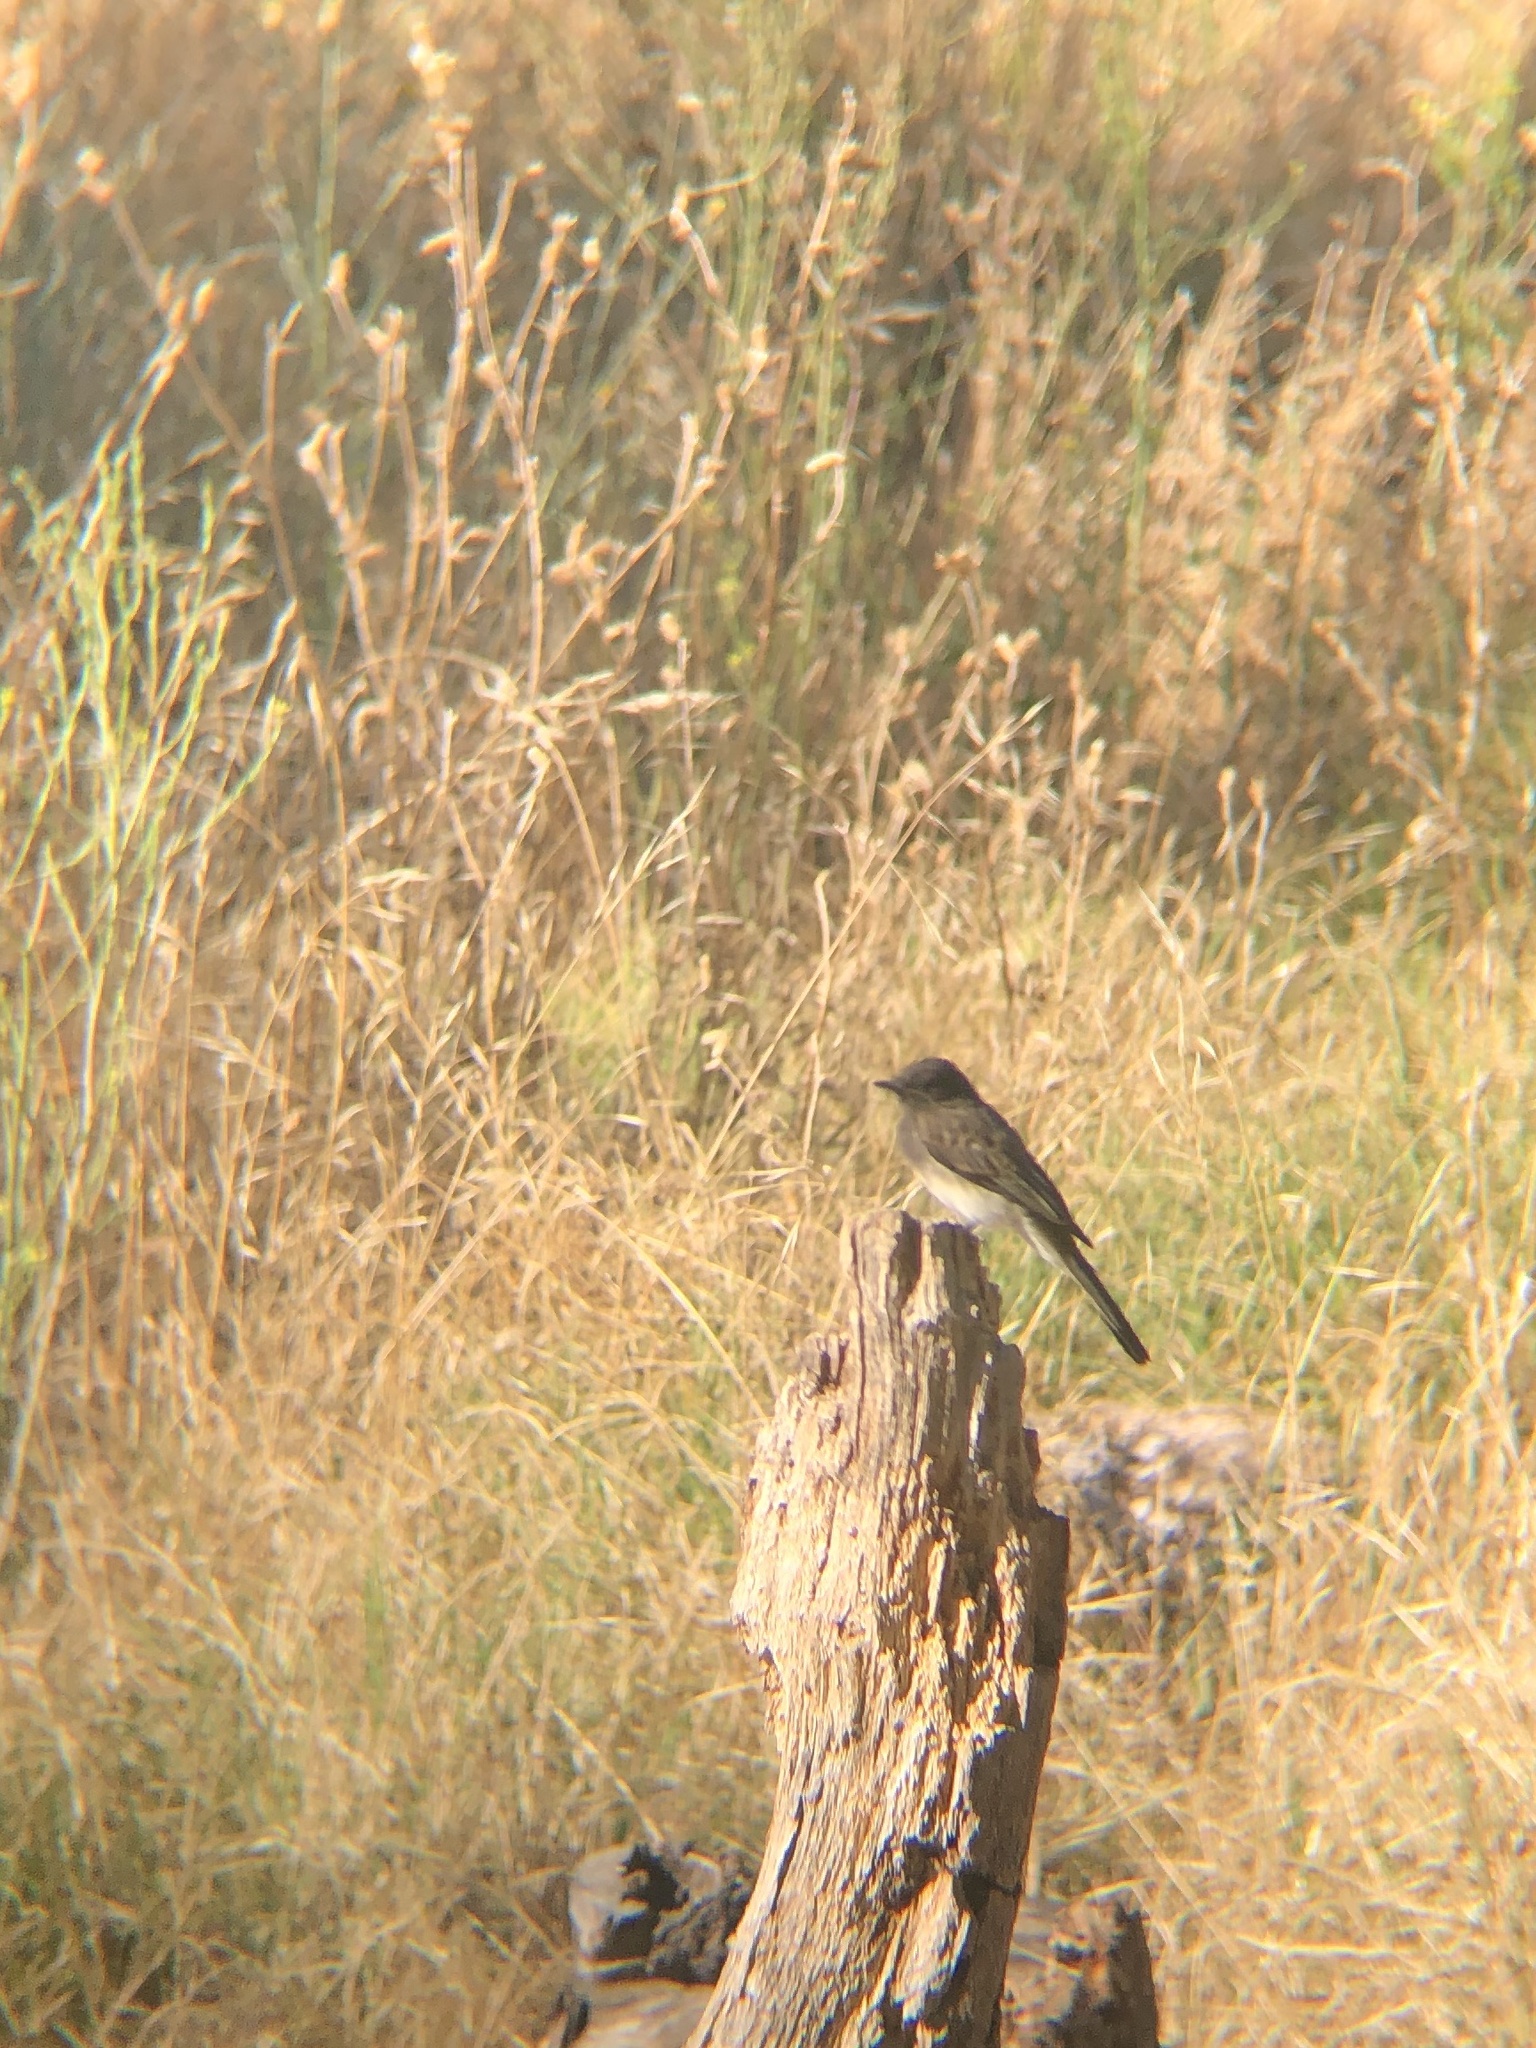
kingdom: Animalia
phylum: Chordata
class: Aves
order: Passeriformes
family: Tyrannidae
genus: Sayornis
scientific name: Sayornis nigricans
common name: Black phoebe
